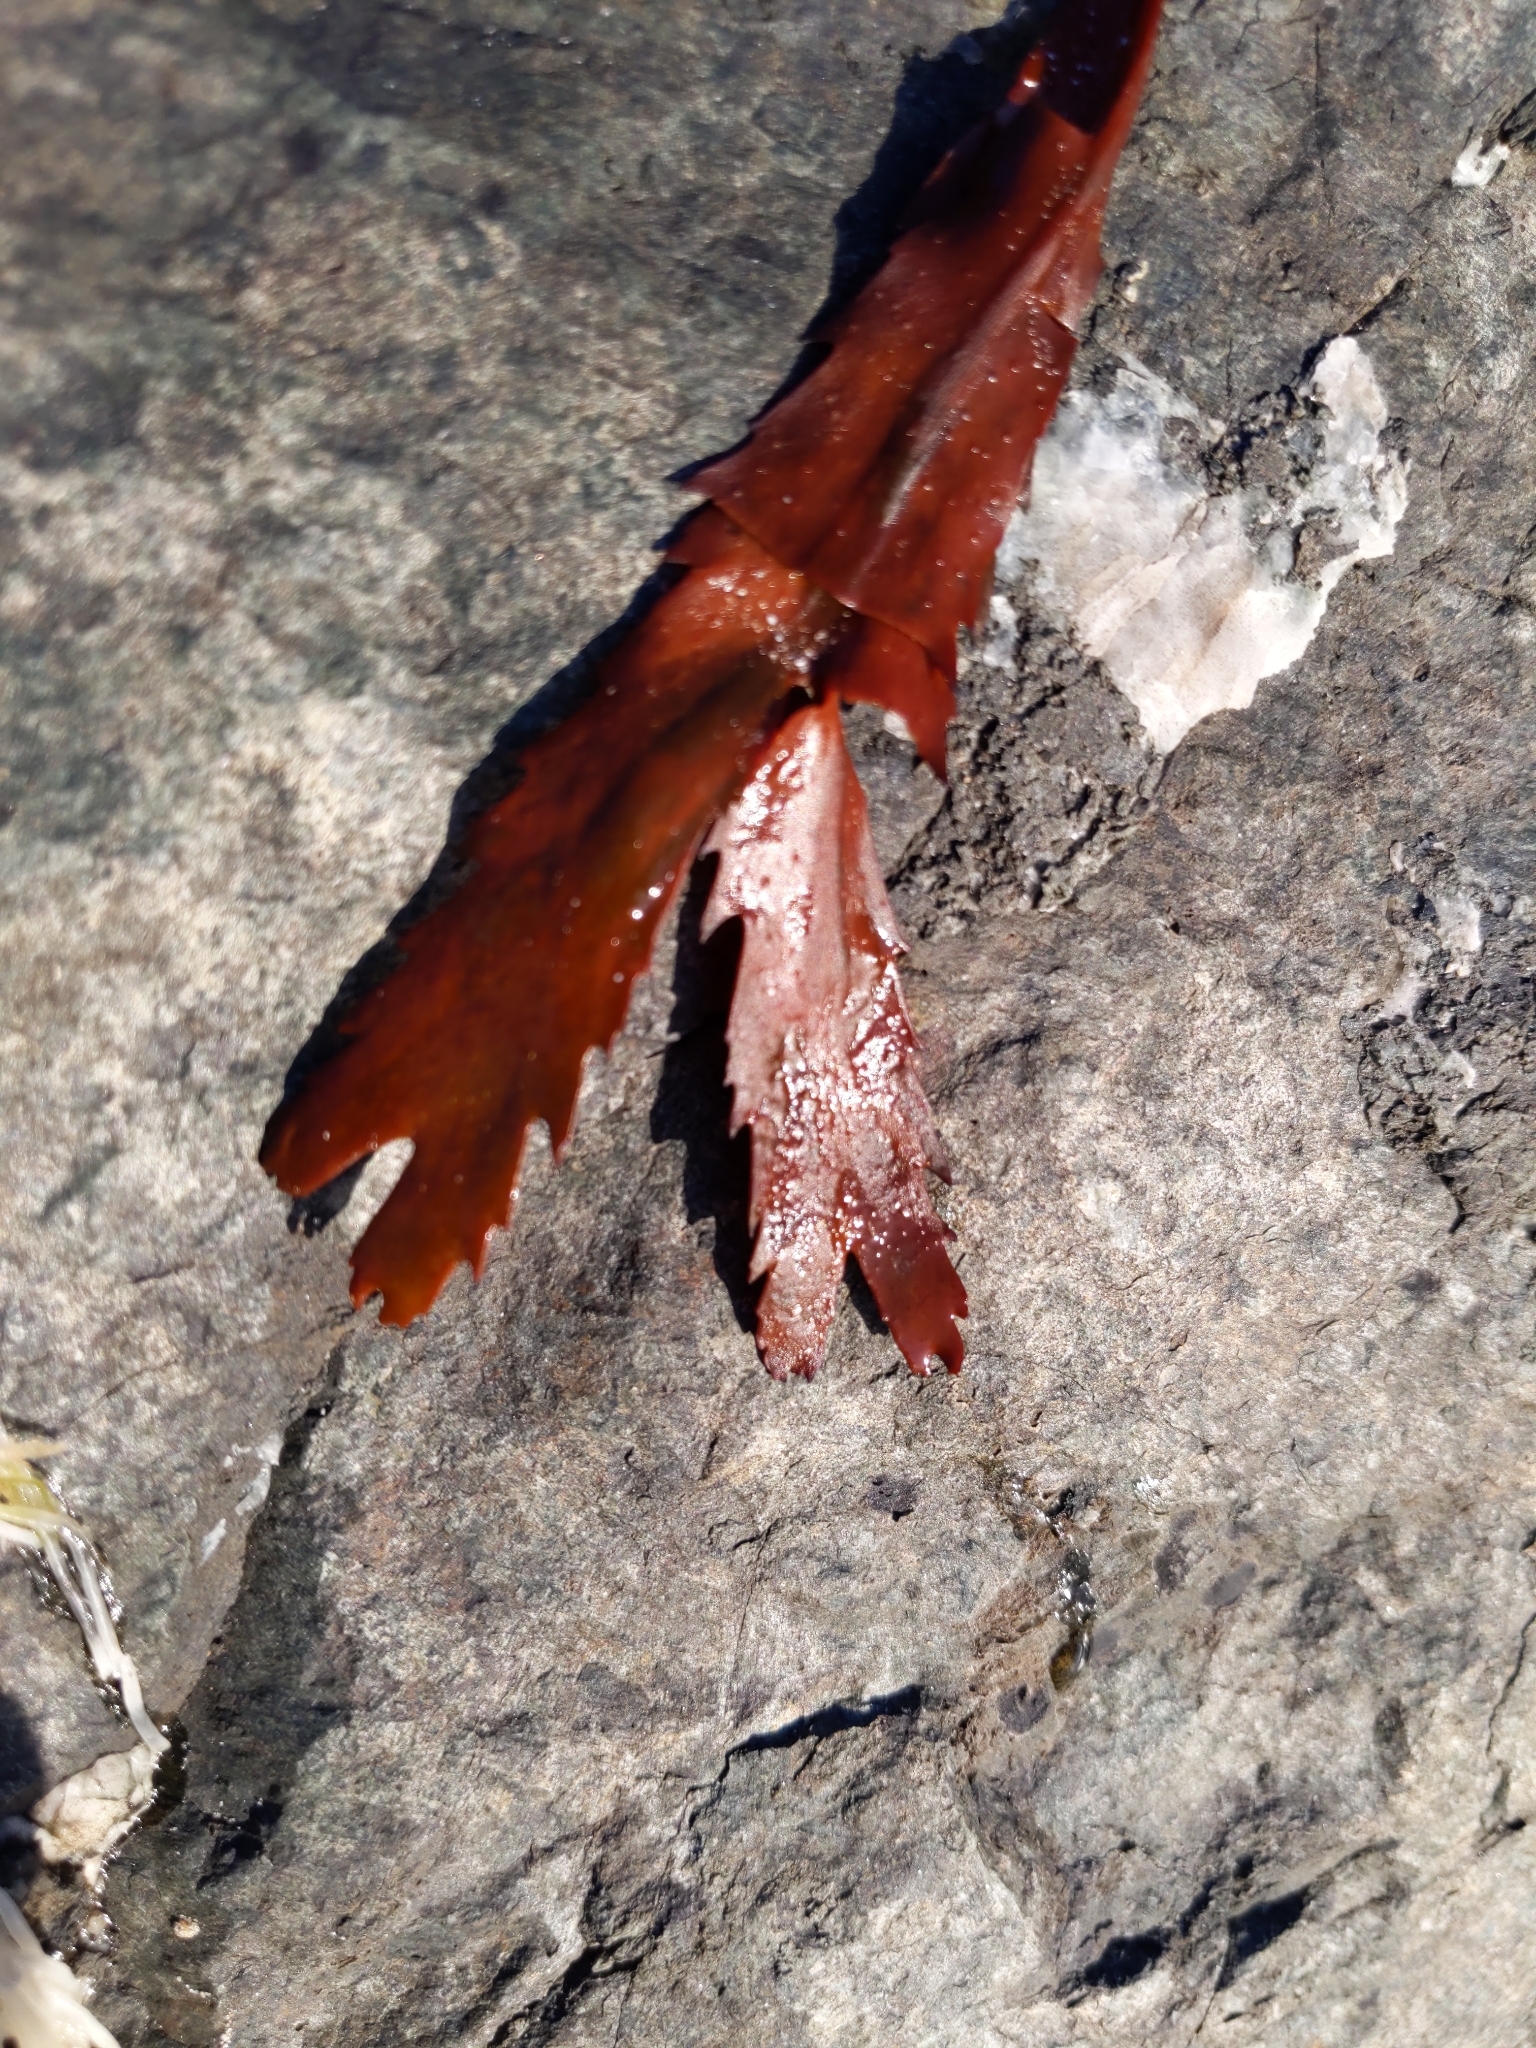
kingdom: Chromista
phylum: Ochrophyta
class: Phaeophyceae
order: Fucales
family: Fucaceae
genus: Fucus
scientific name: Fucus serratus
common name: Toothed wrack
